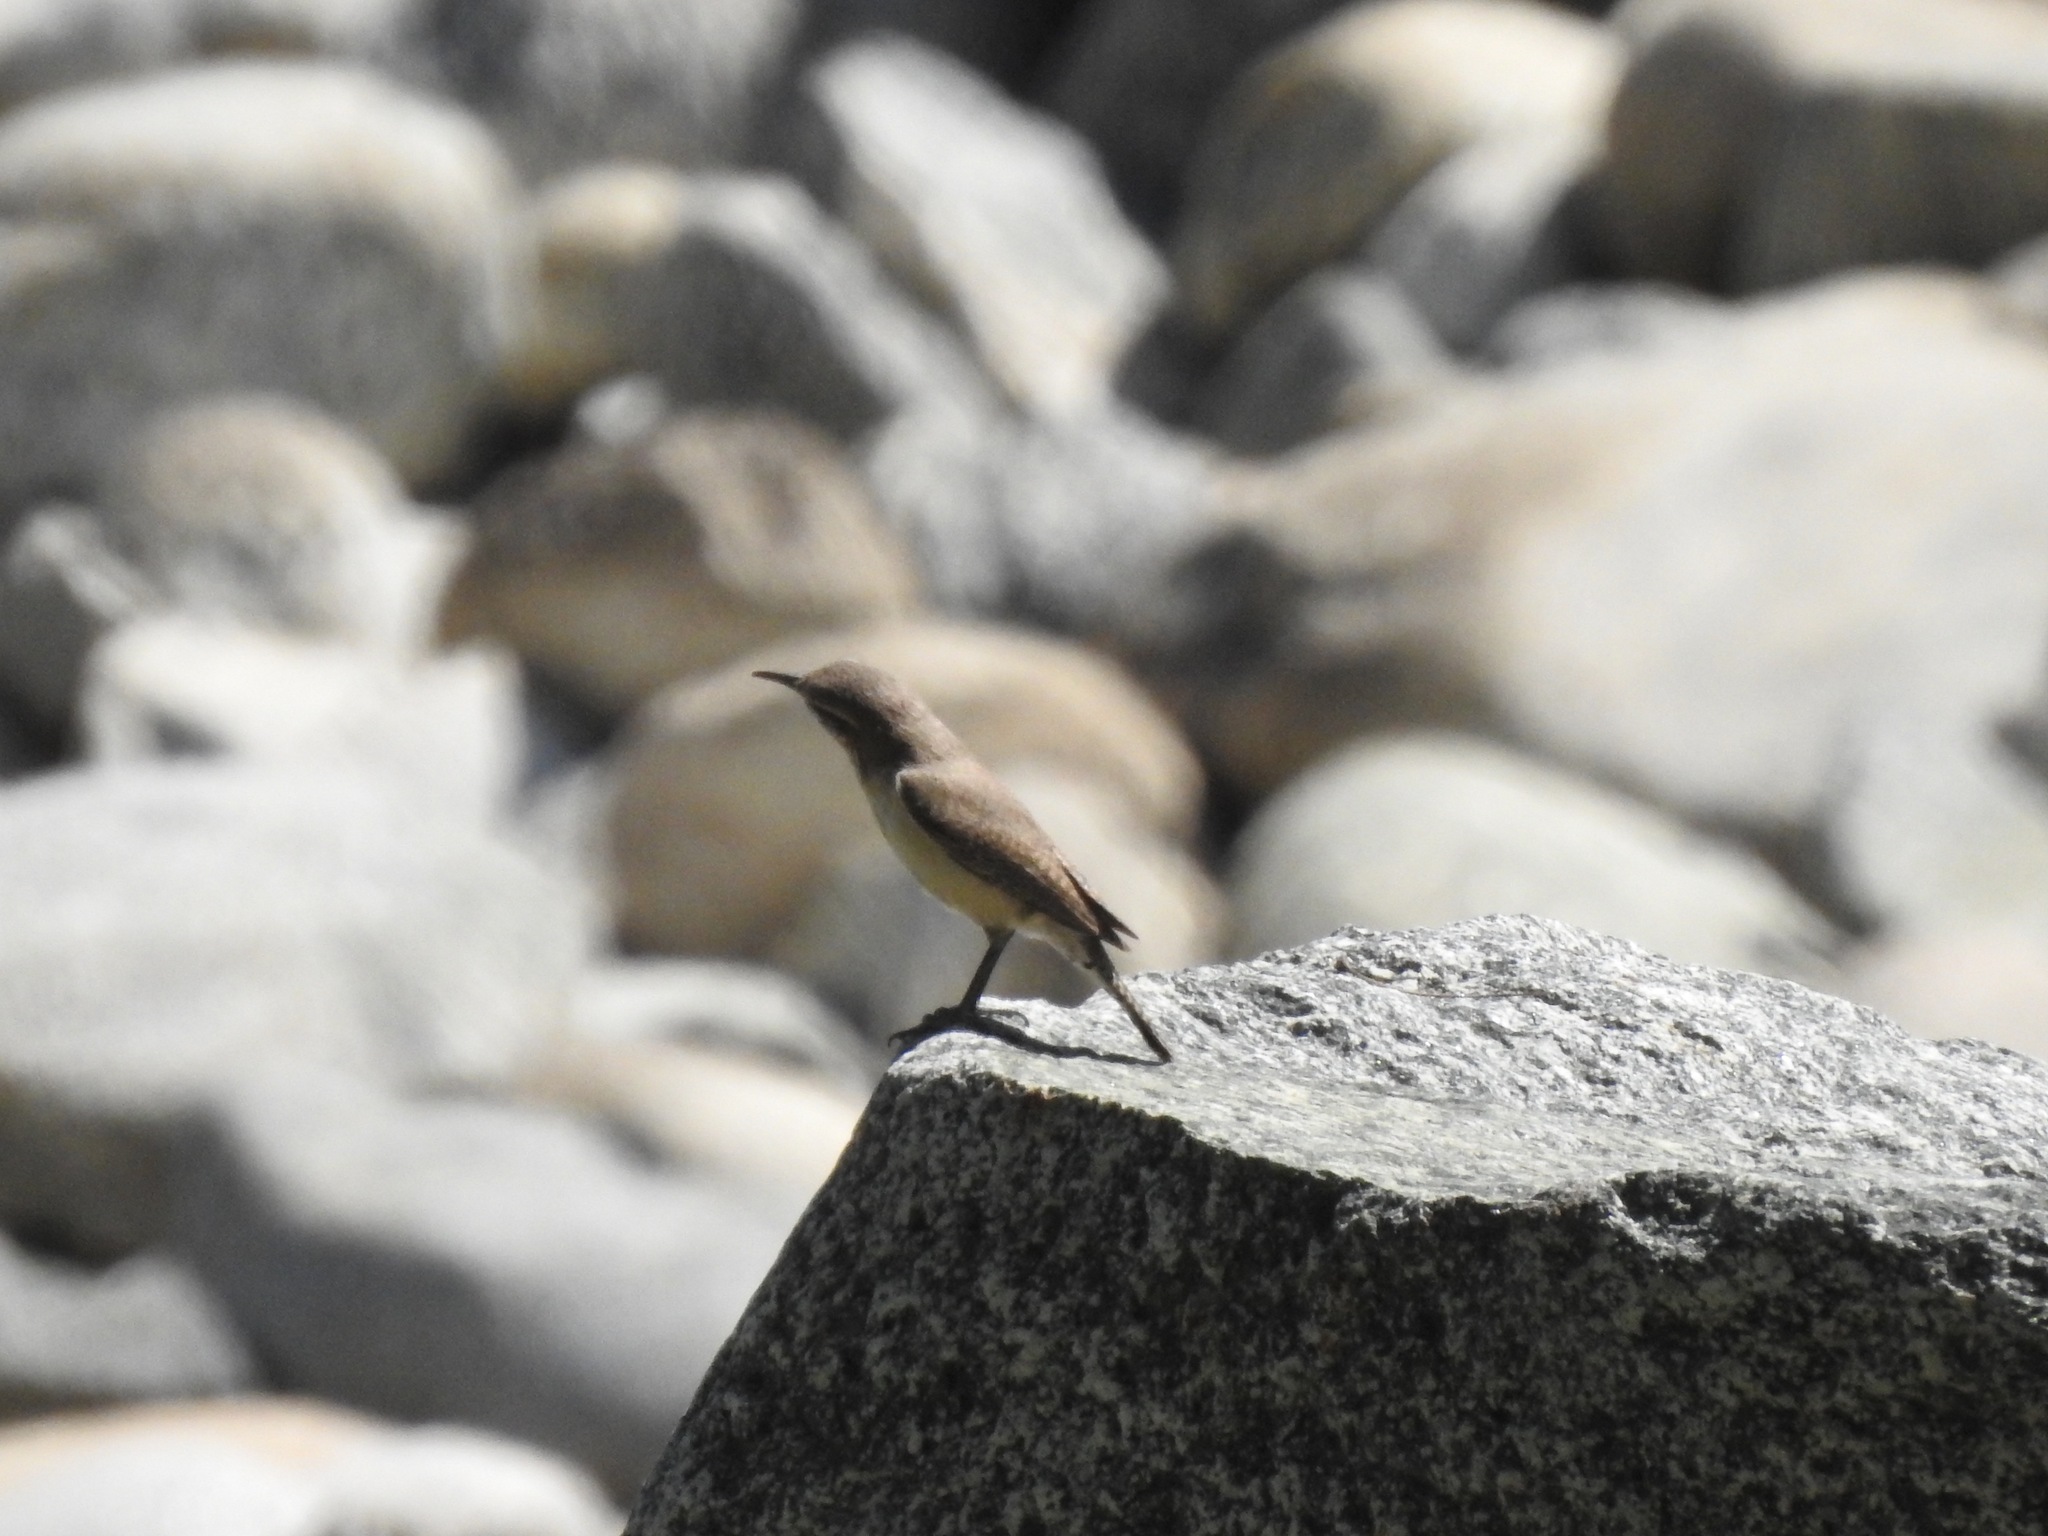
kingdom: Animalia
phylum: Chordata
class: Aves
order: Passeriformes
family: Troglodytidae
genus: Salpinctes
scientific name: Salpinctes obsoletus
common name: Rock wren
